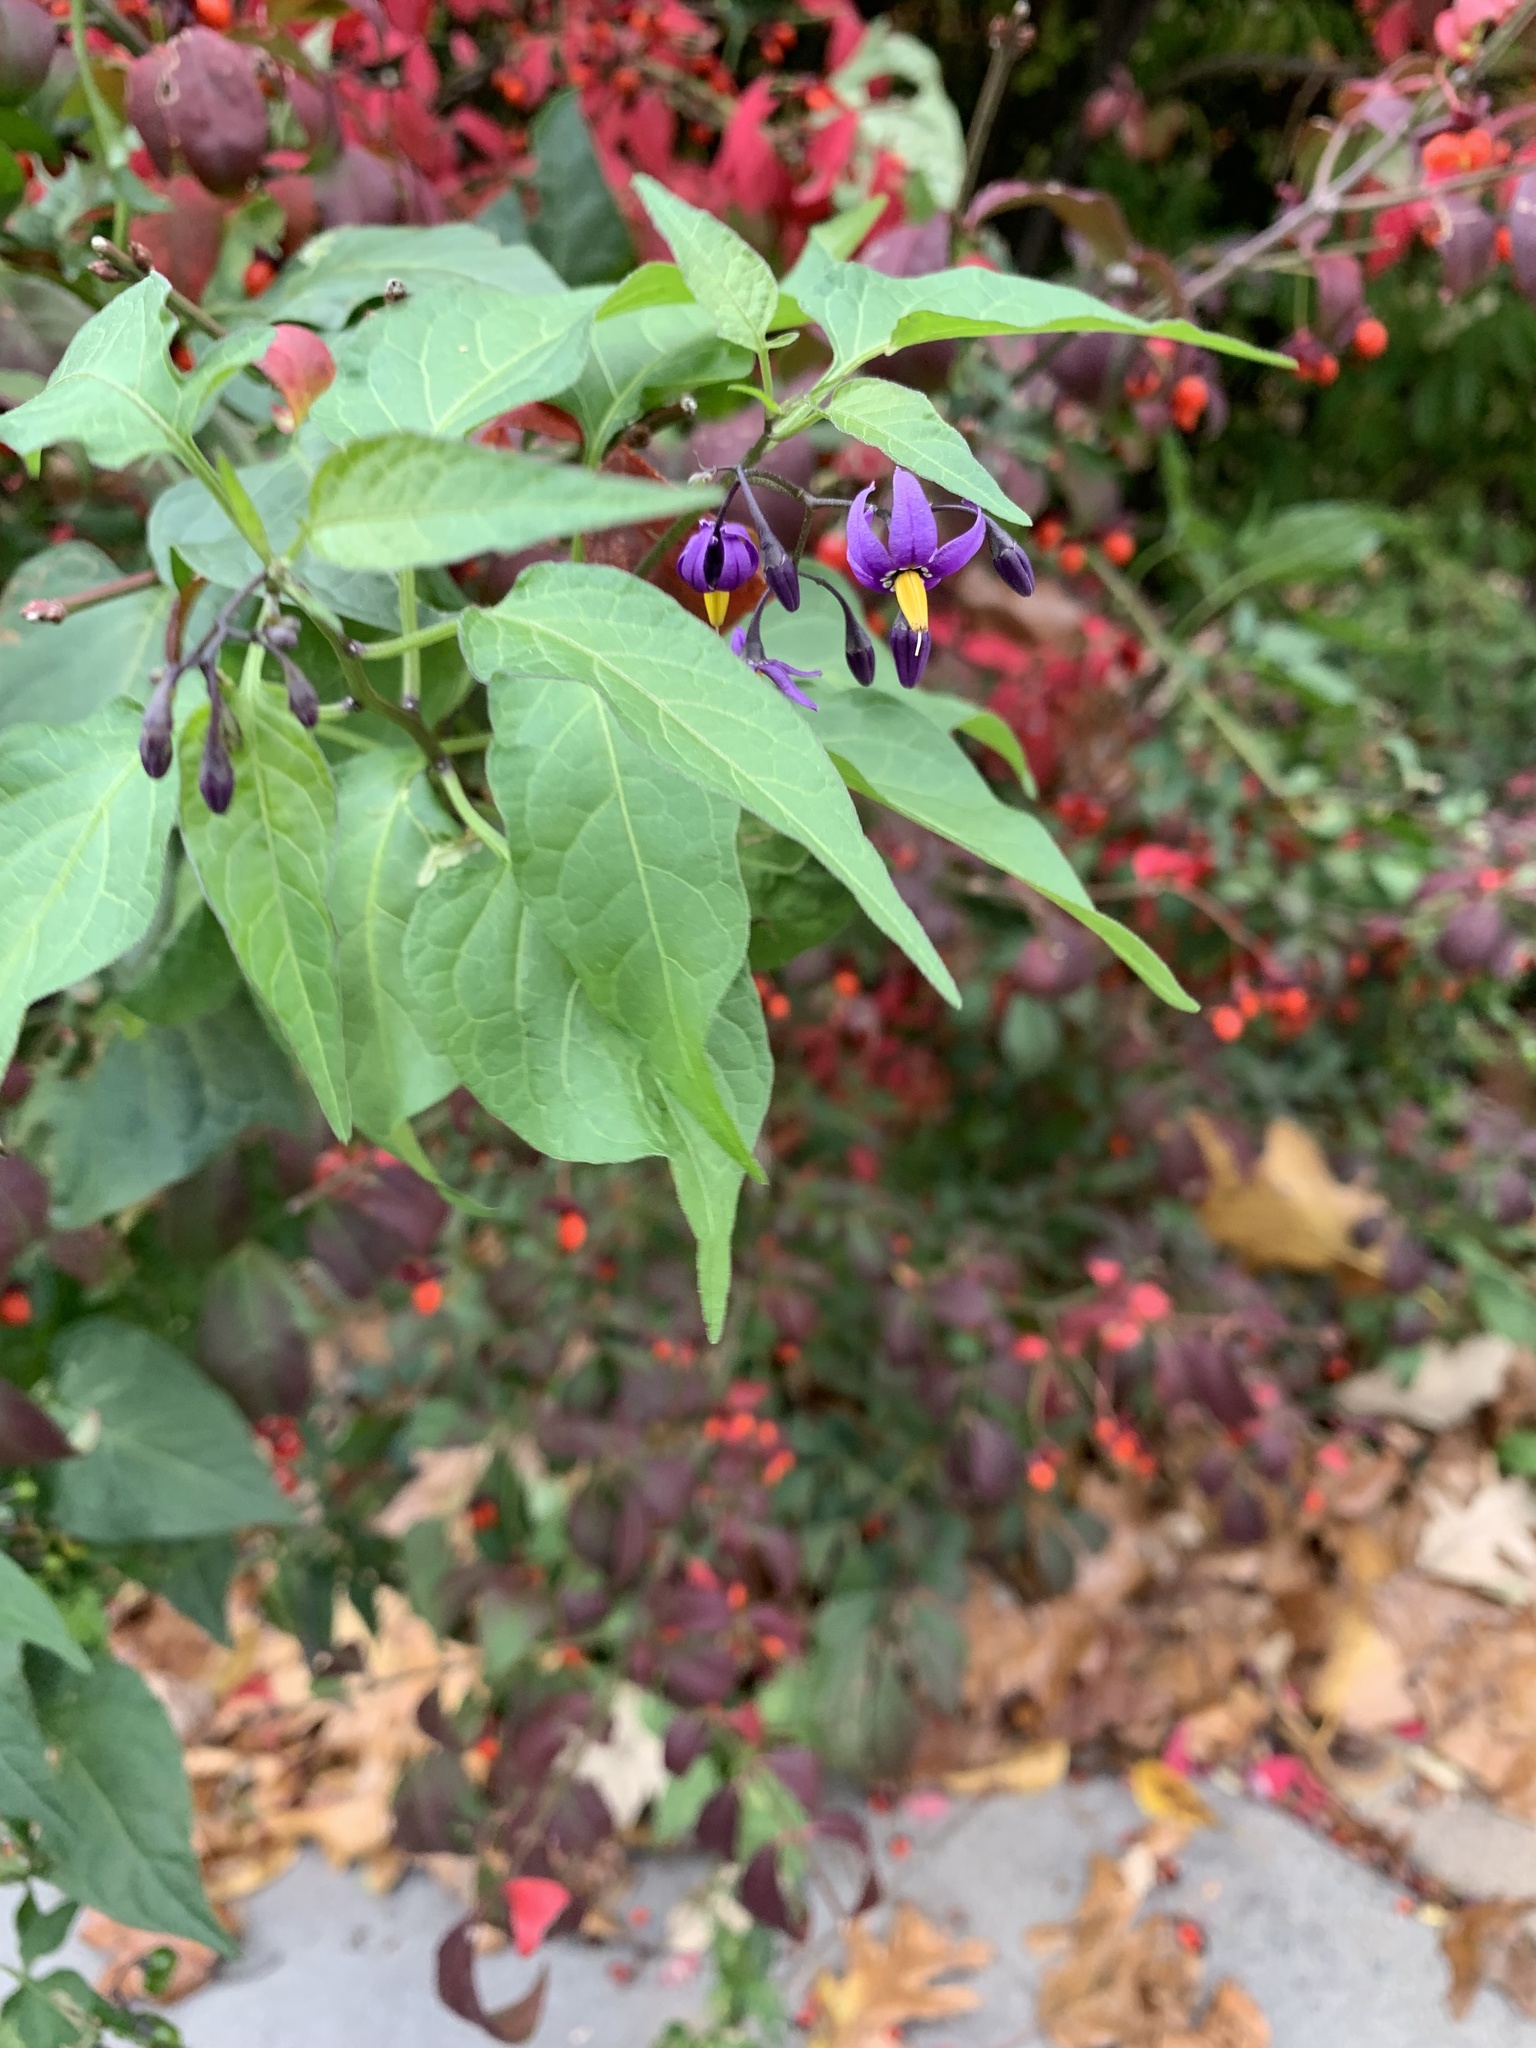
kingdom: Plantae
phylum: Tracheophyta
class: Magnoliopsida
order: Solanales
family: Solanaceae
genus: Solanum
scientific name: Solanum dulcamara
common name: Climbing nightshade
